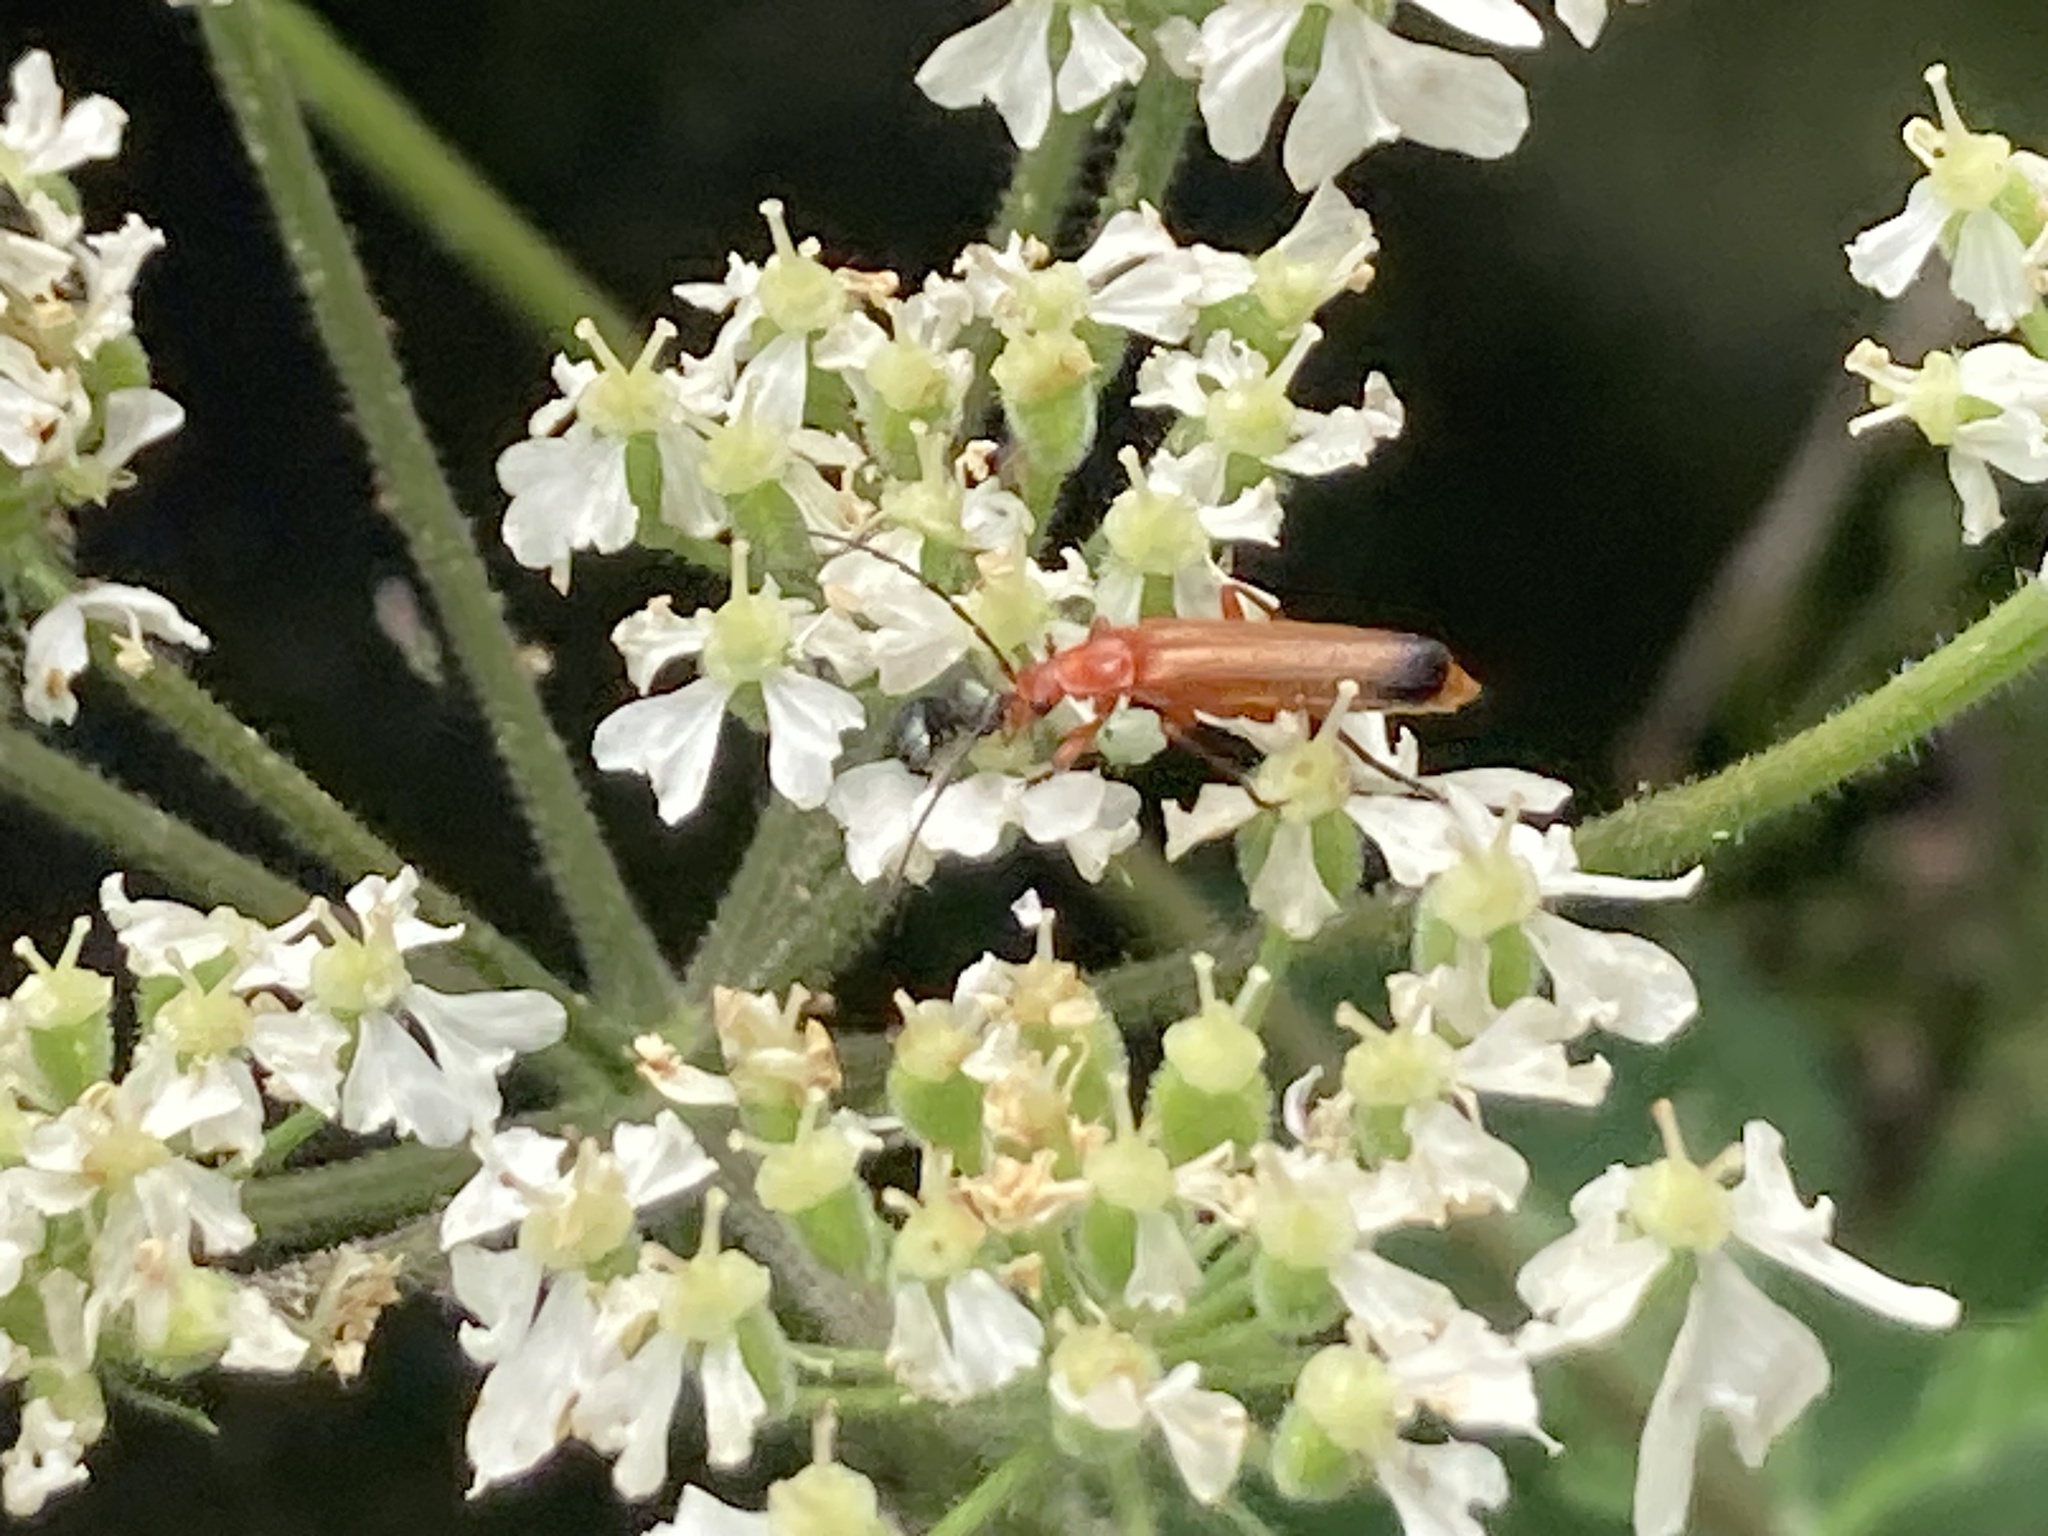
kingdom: Animalia
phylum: Arthropoda
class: Insecta
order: Coleoptera
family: Cantharidae
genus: Rhagonycha
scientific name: Rhagonycha fulva
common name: Common red soldier beetle
